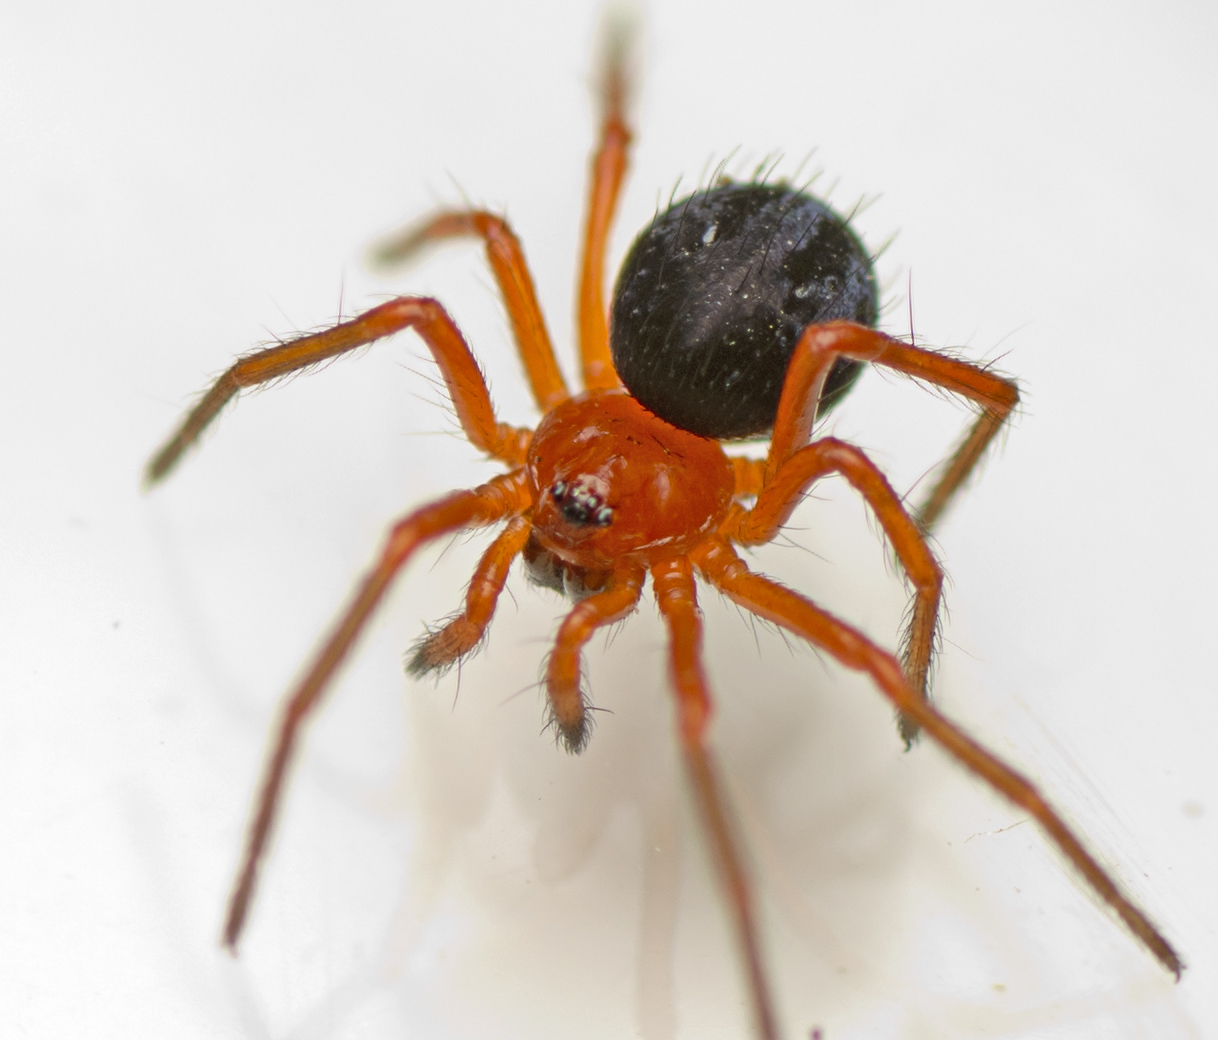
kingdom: Animalia
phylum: Arthropoda
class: Arachnida
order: Araneae
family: Nicodamidae
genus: Nicodamus
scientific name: Nicodamus peregrinus
